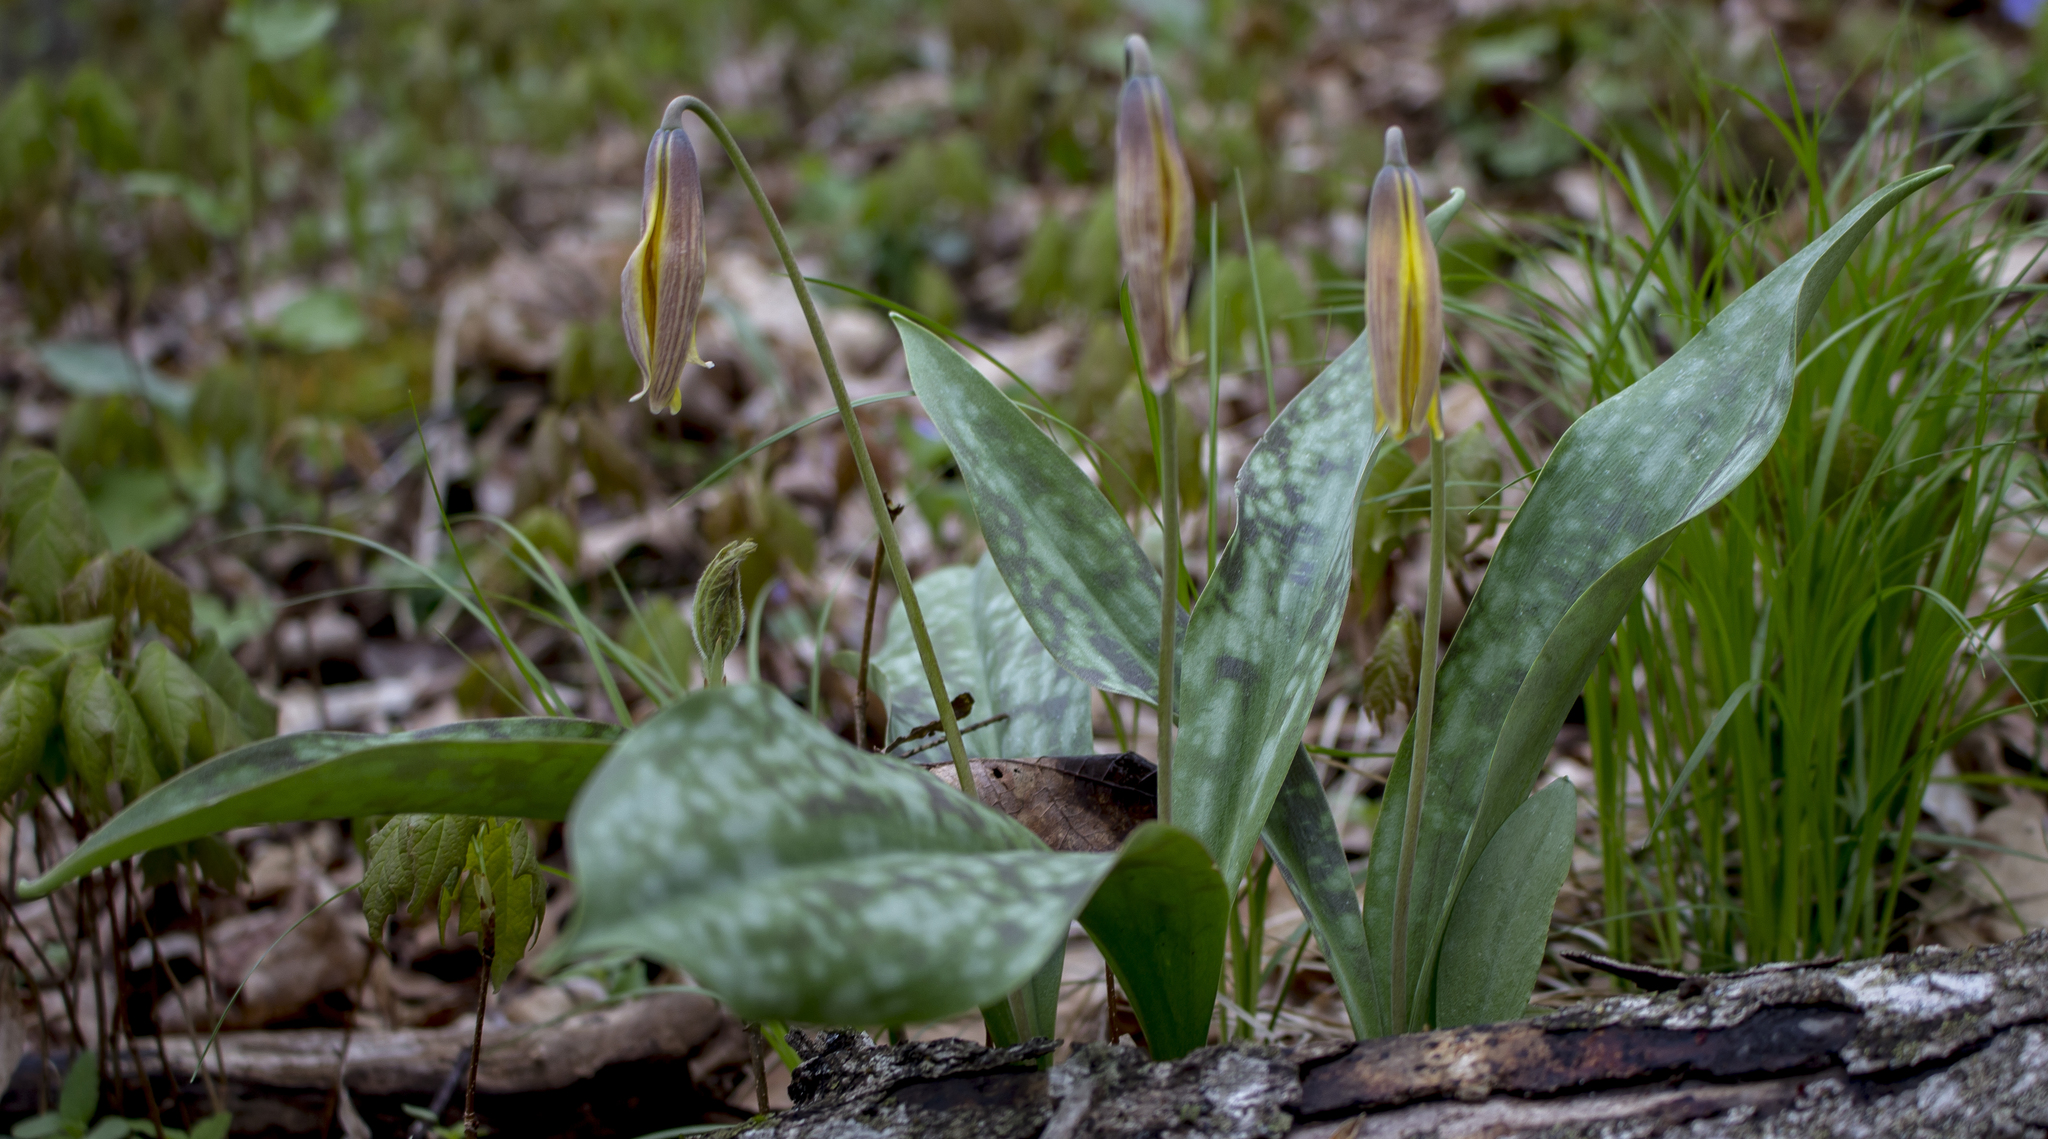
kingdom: Plantae
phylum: Tracheophyta
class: Liliopsida
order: Liliales
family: Liliaceae
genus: Erythronium
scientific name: Erythronium americanum
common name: Yellow adder's-tongue
